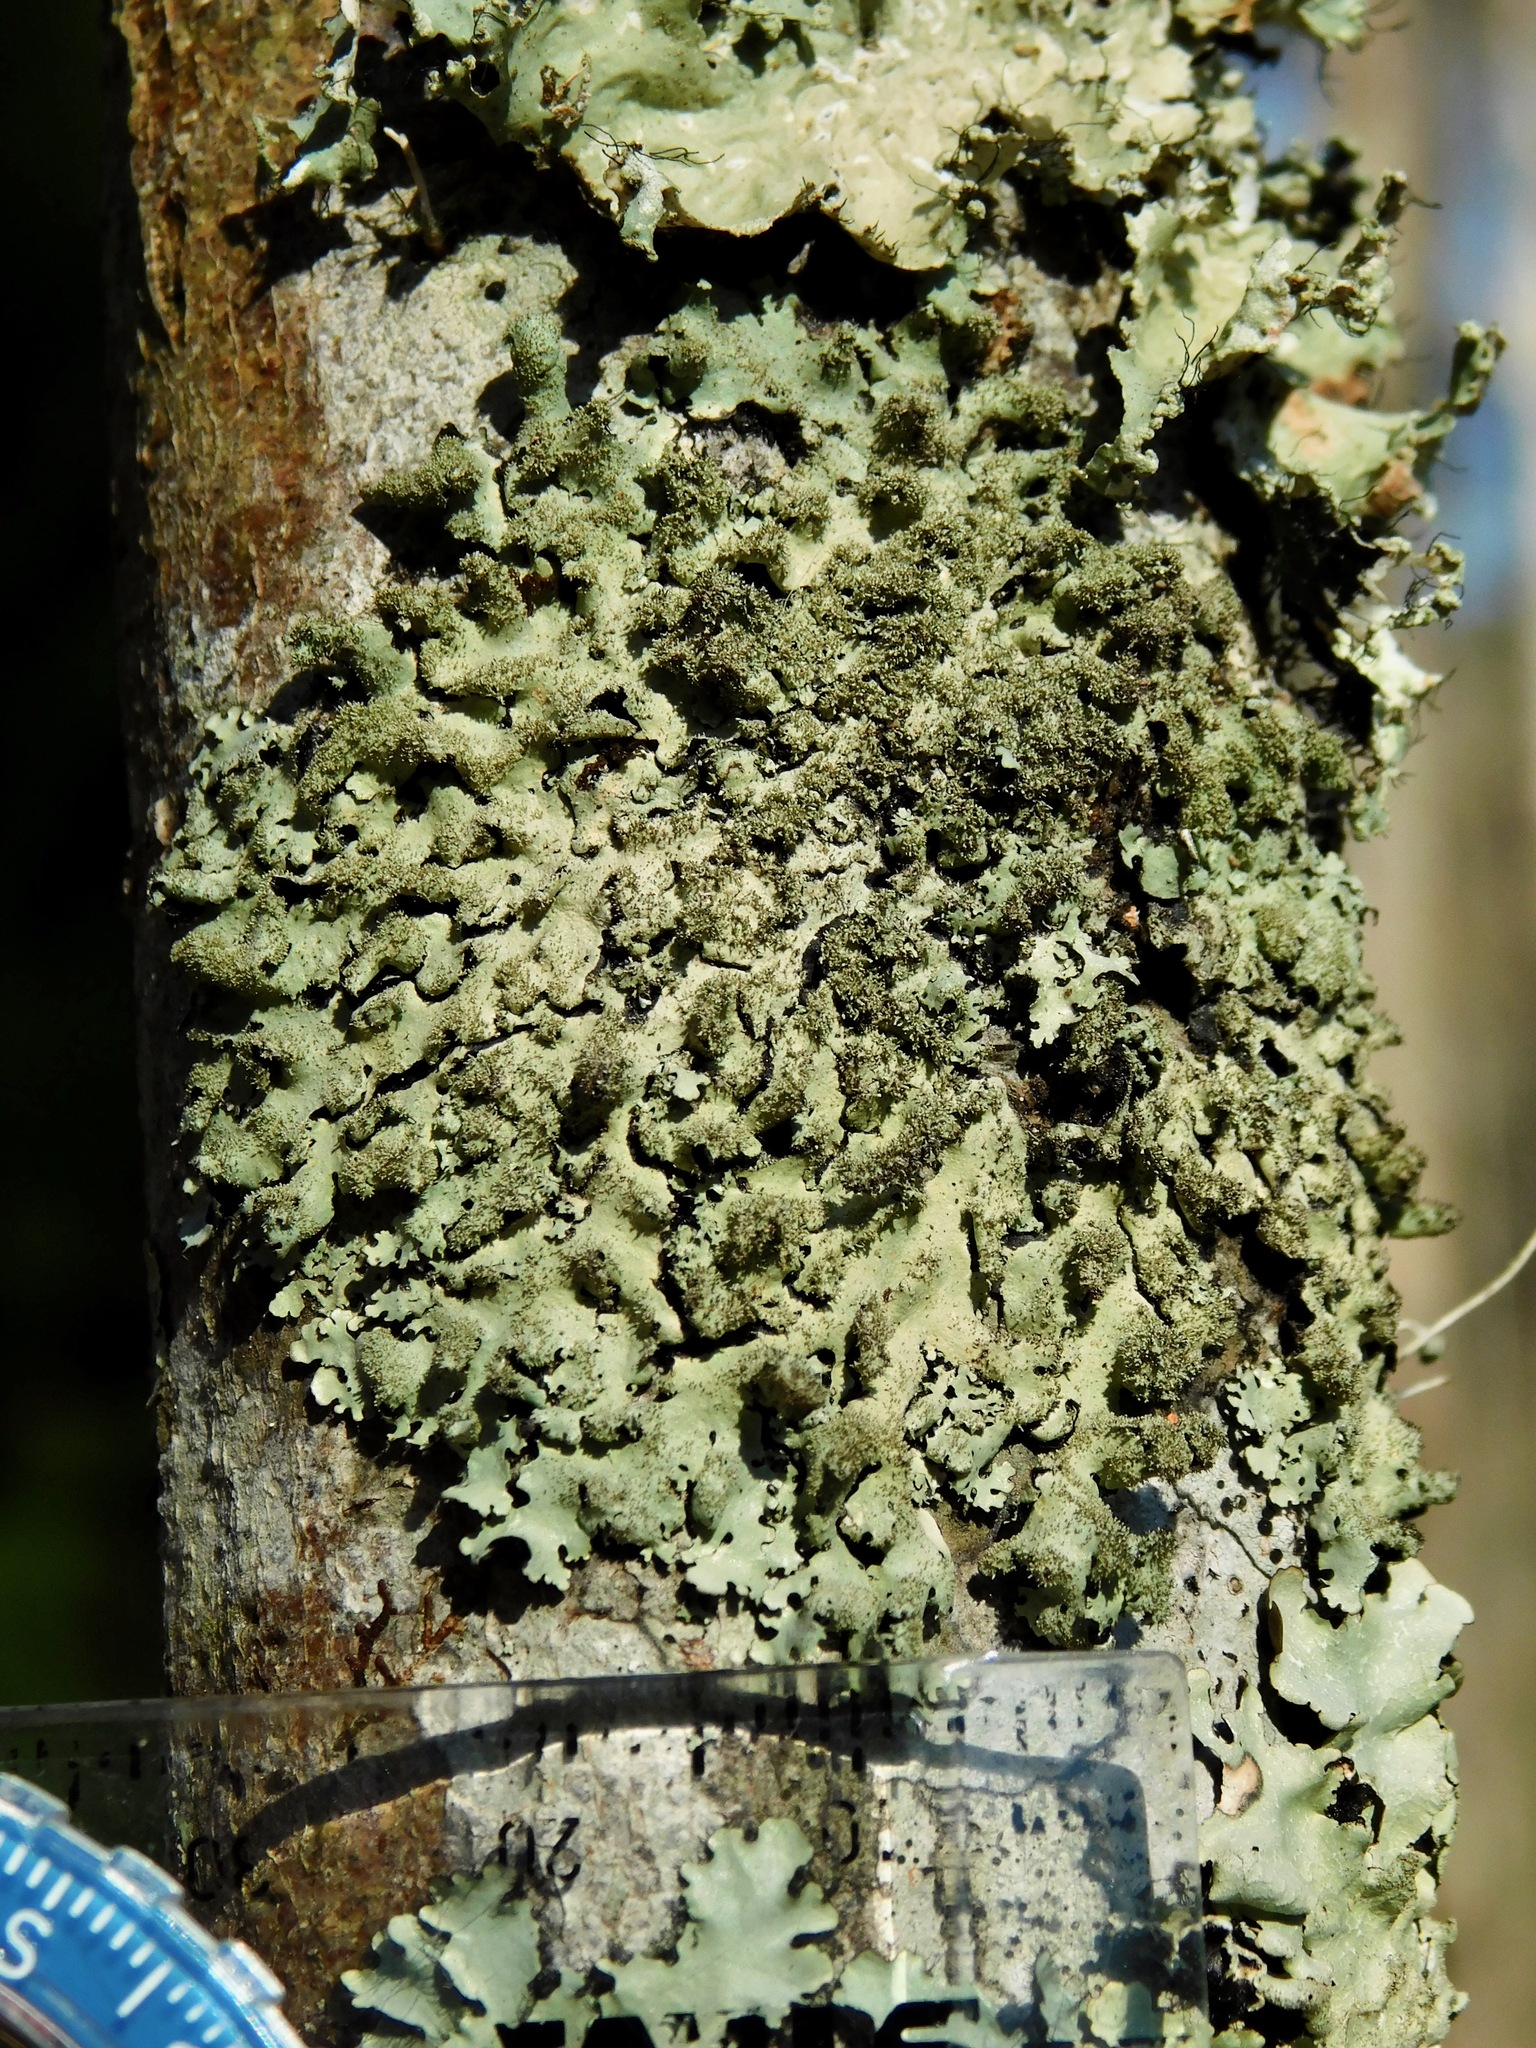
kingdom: Fungi
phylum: Ascomycota
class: Lecanoromycetes
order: Lecanorales
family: Parmeliaceae
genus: Hypotrachyna
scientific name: Hypotrachyna horrescens
